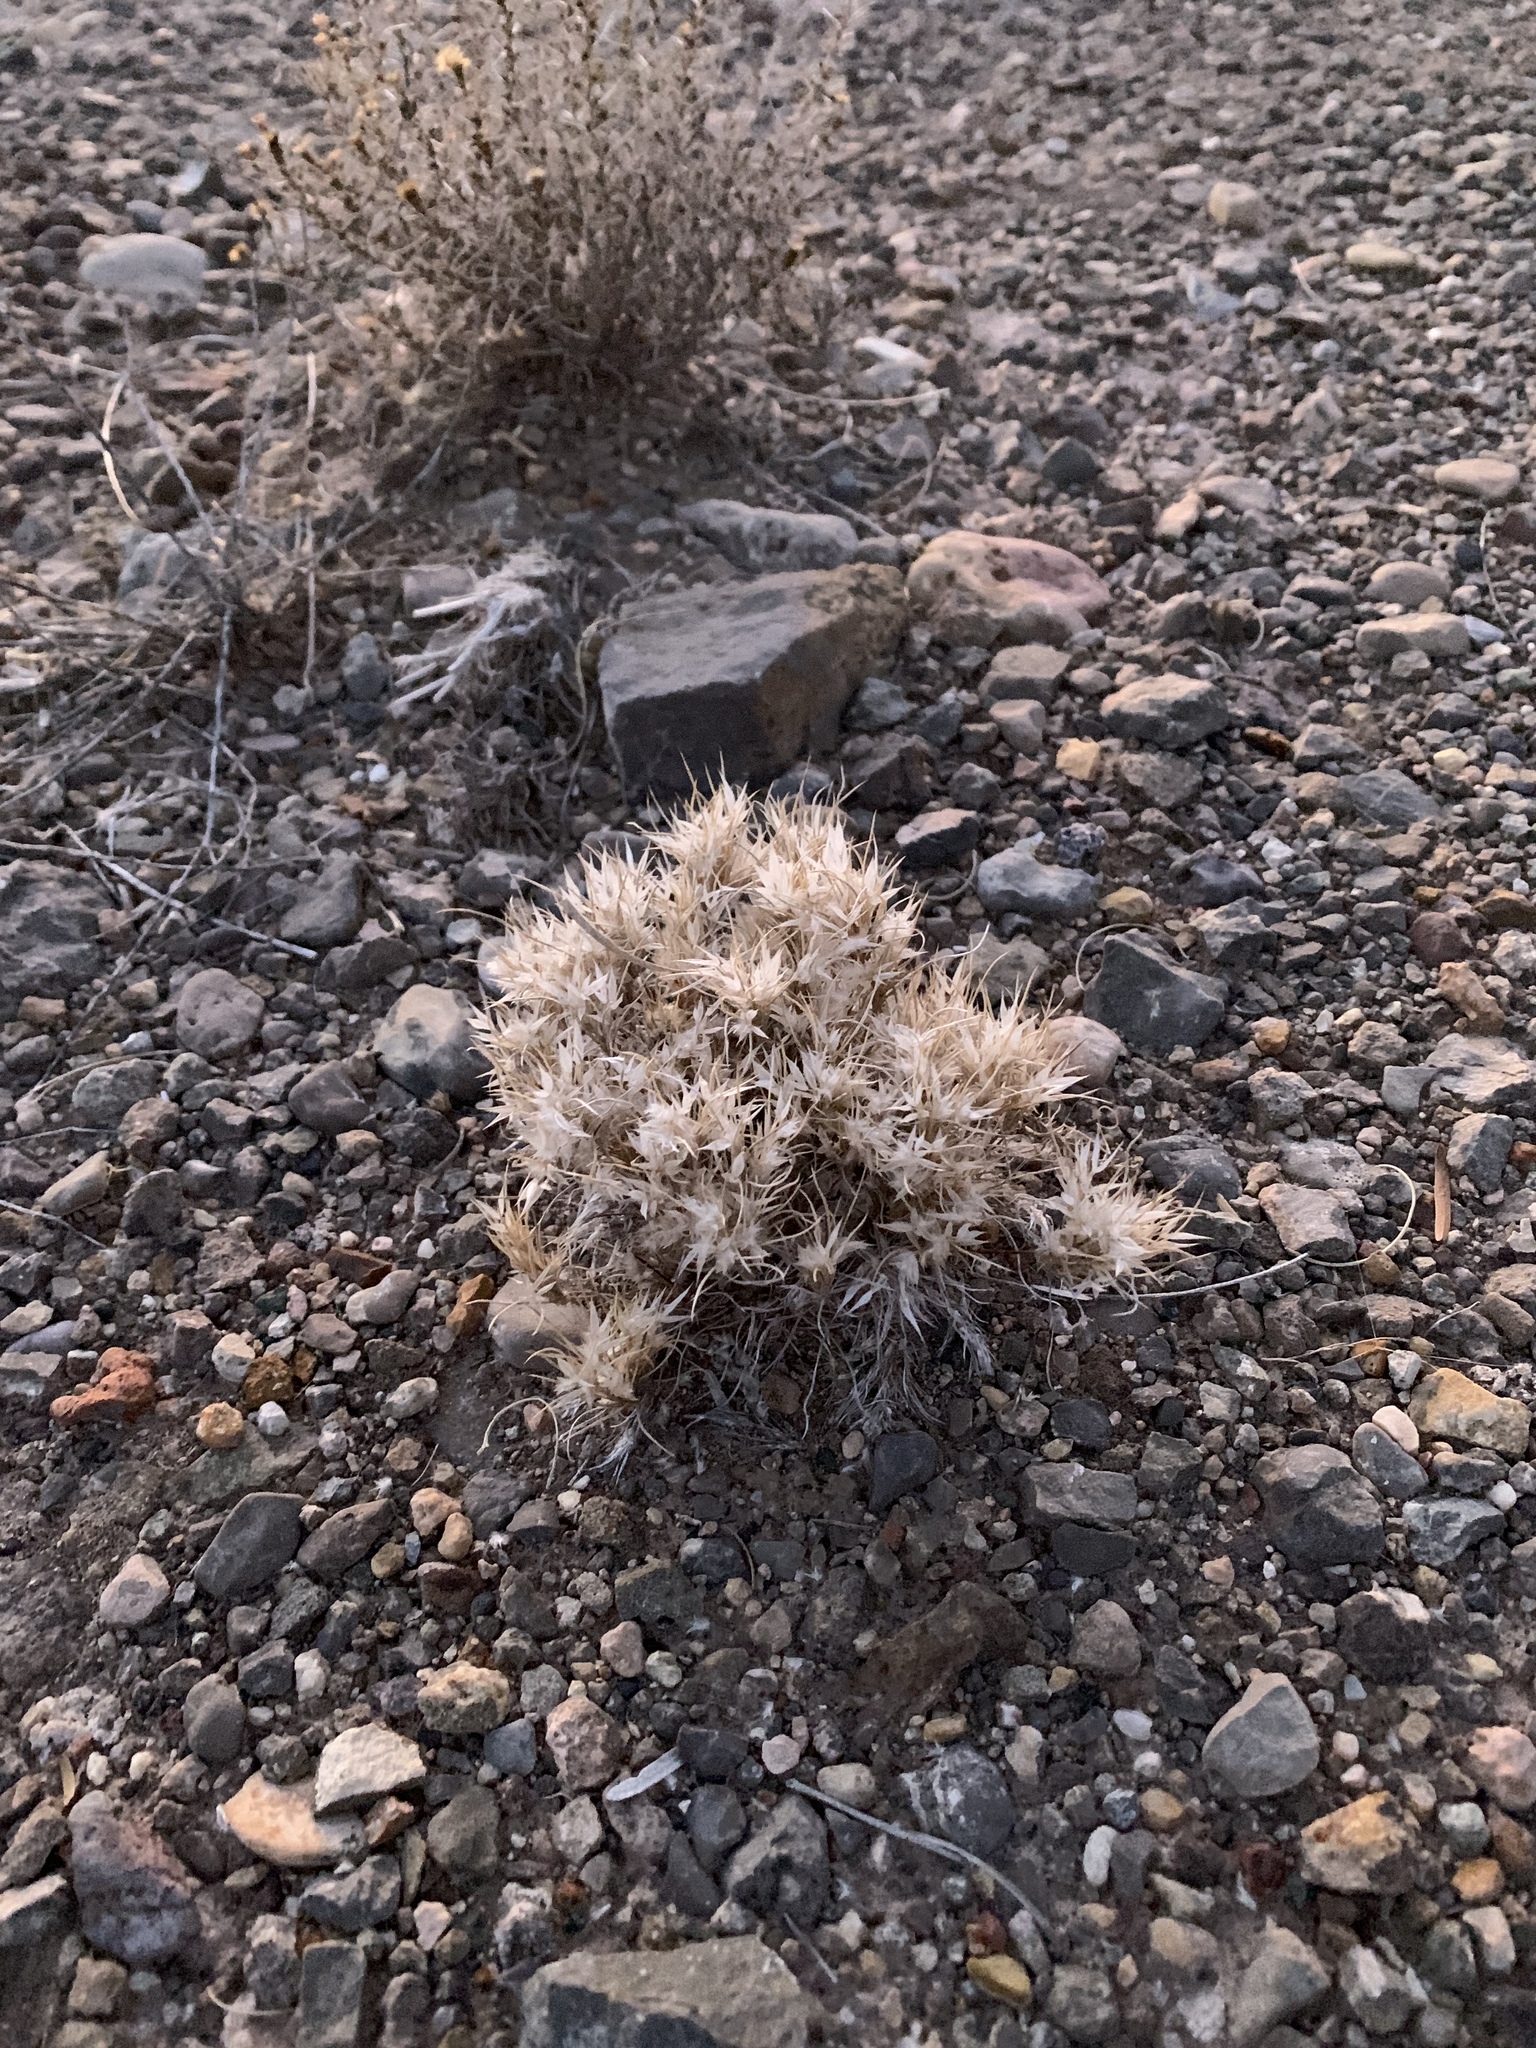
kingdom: Plantae
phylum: Tracheophyta
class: Liliopsida
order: Poales
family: Poaceae
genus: Dasyochloa
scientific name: Dasyochloa pulchella
